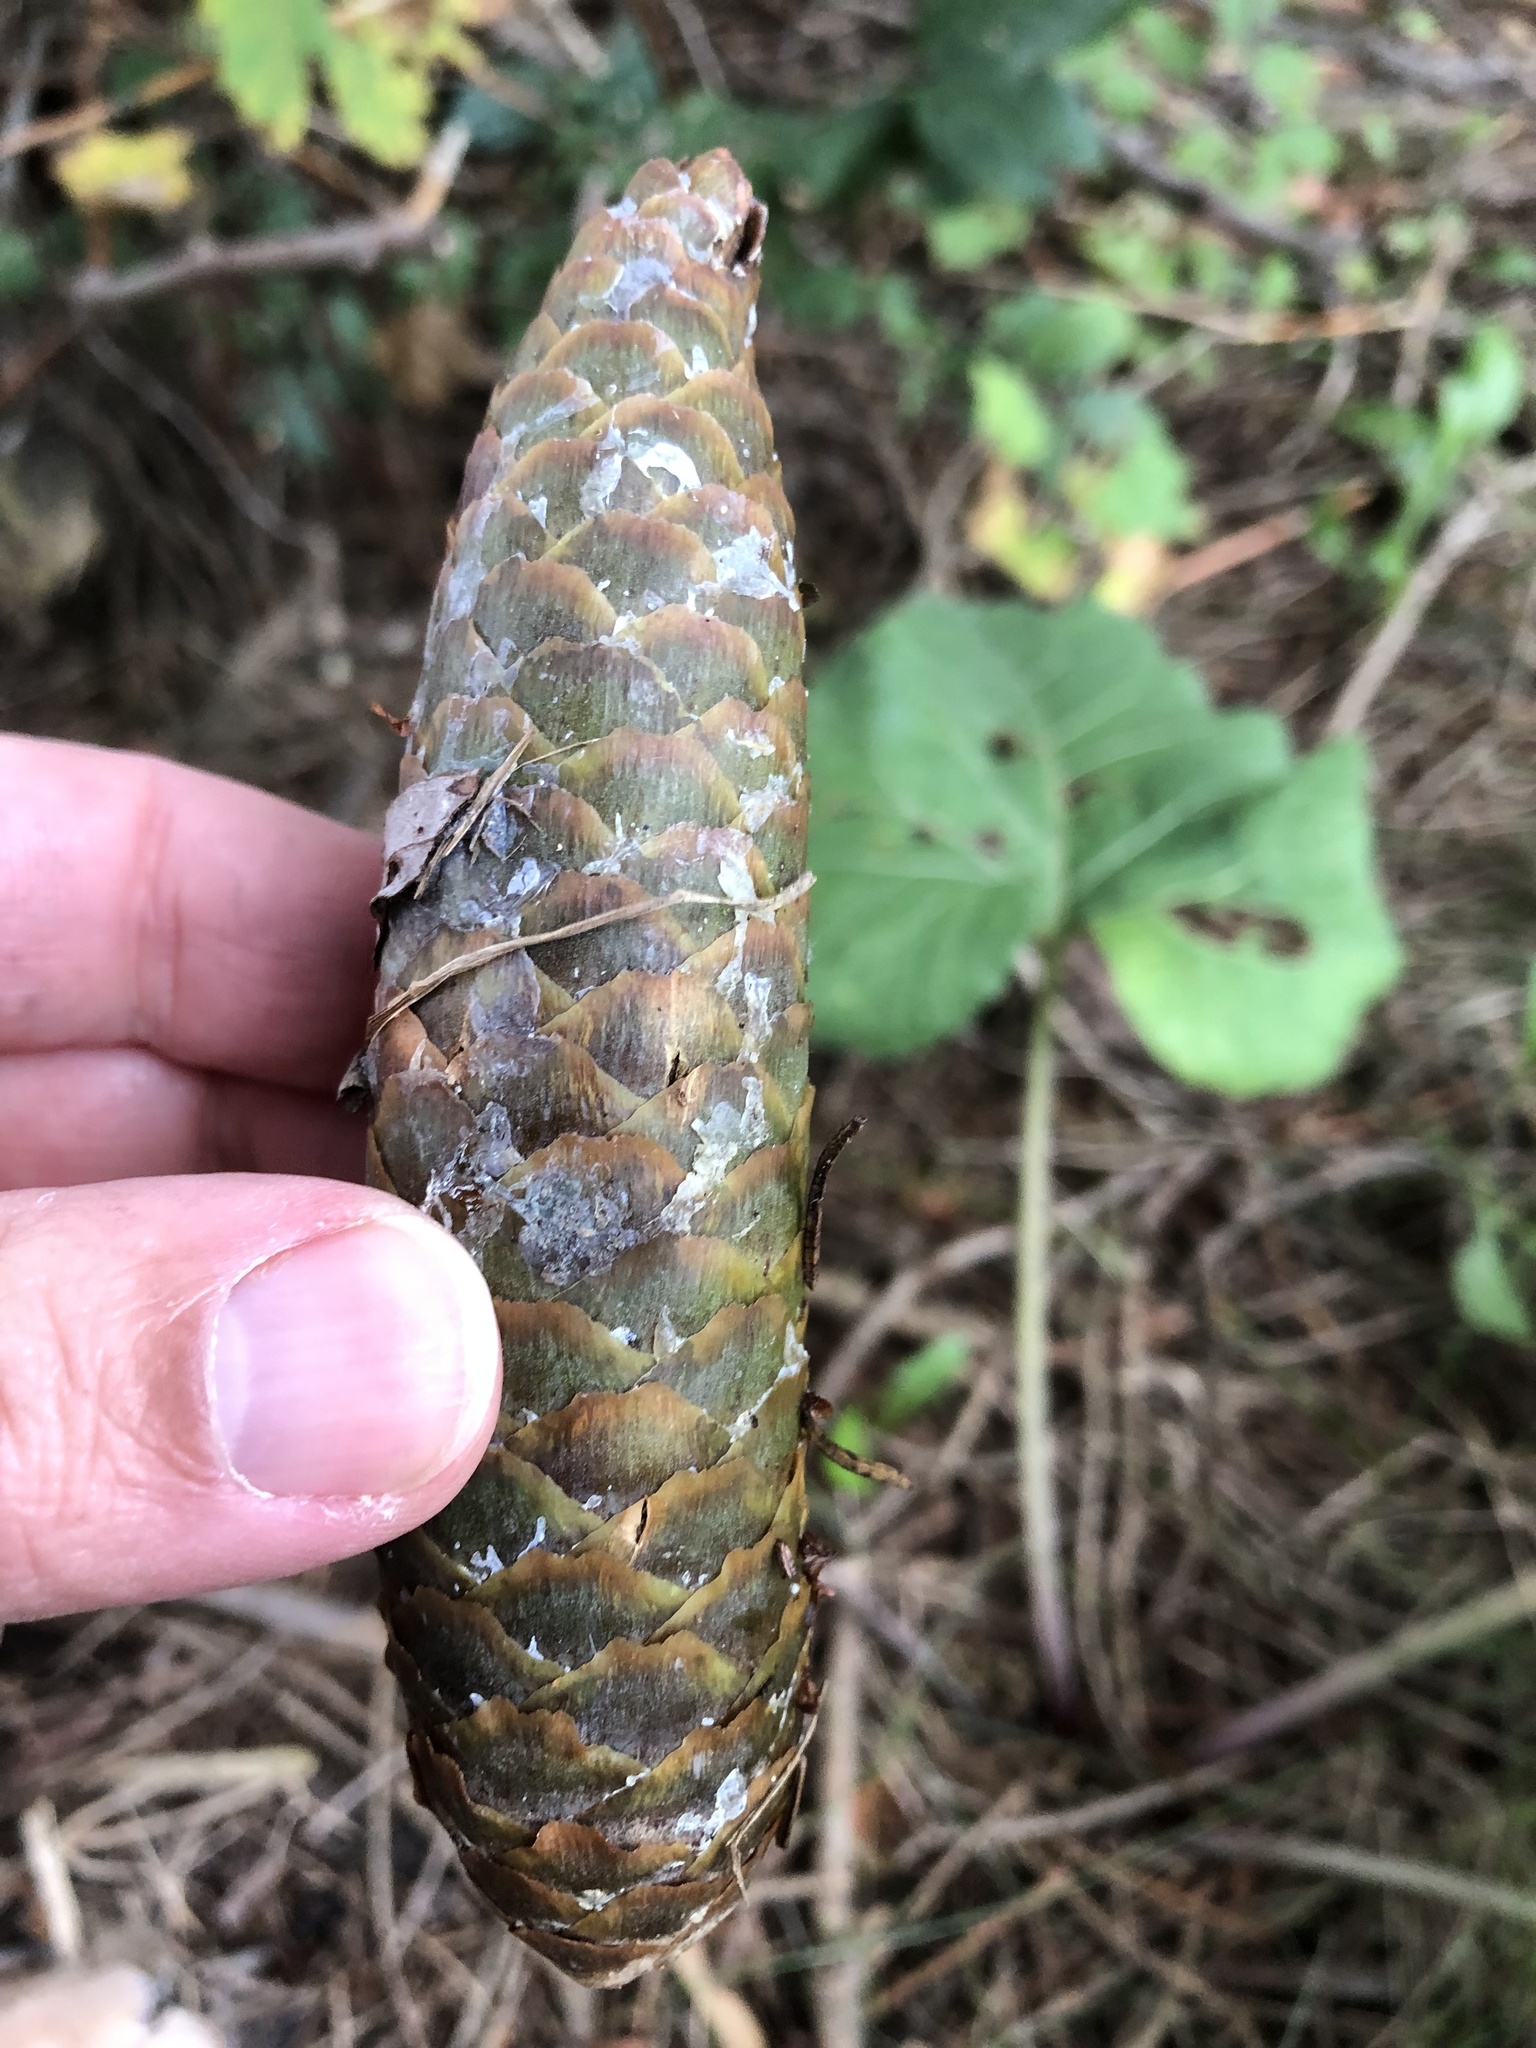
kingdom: Plantae
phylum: Tracheophyta
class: Pinopsida
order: Pinales
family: Pinaceae
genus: Picea
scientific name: Picea abies
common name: Norway spruce
